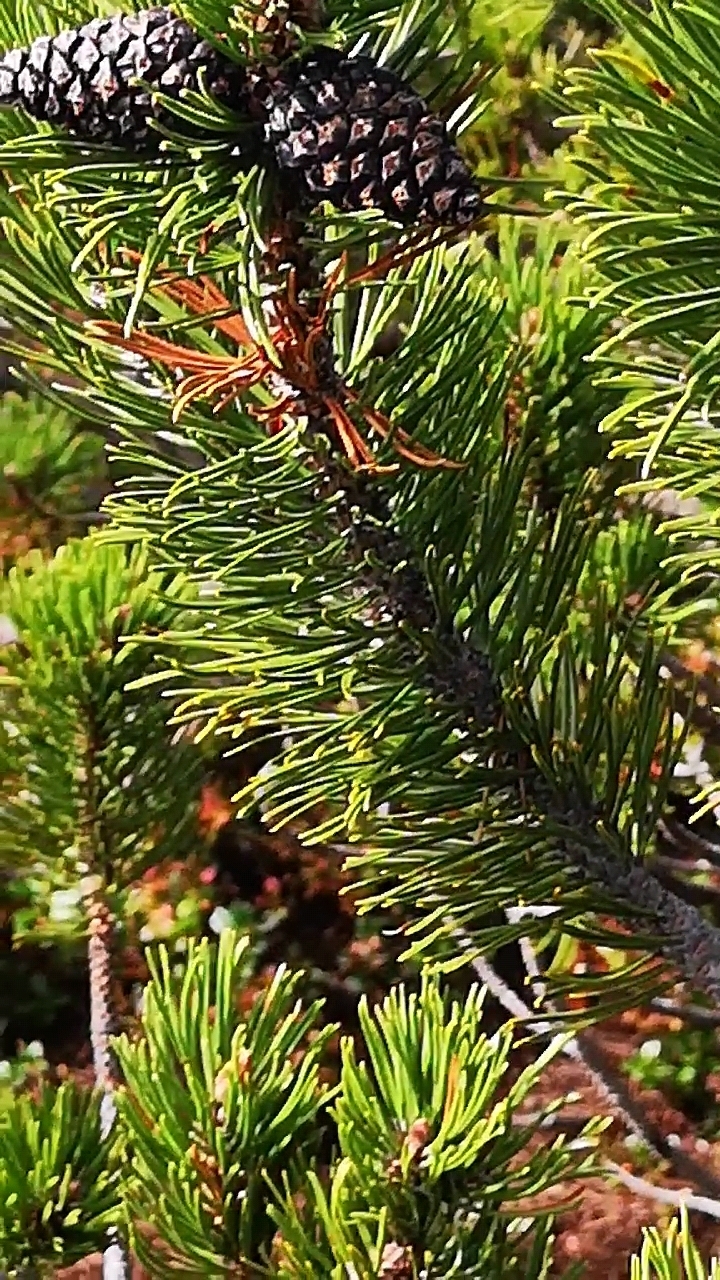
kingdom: Plantae
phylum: Tracheophyta
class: Pinopsida
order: Pinales
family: Pinaceae
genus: Pinus
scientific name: Pinus mugo
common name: Mugo pine
